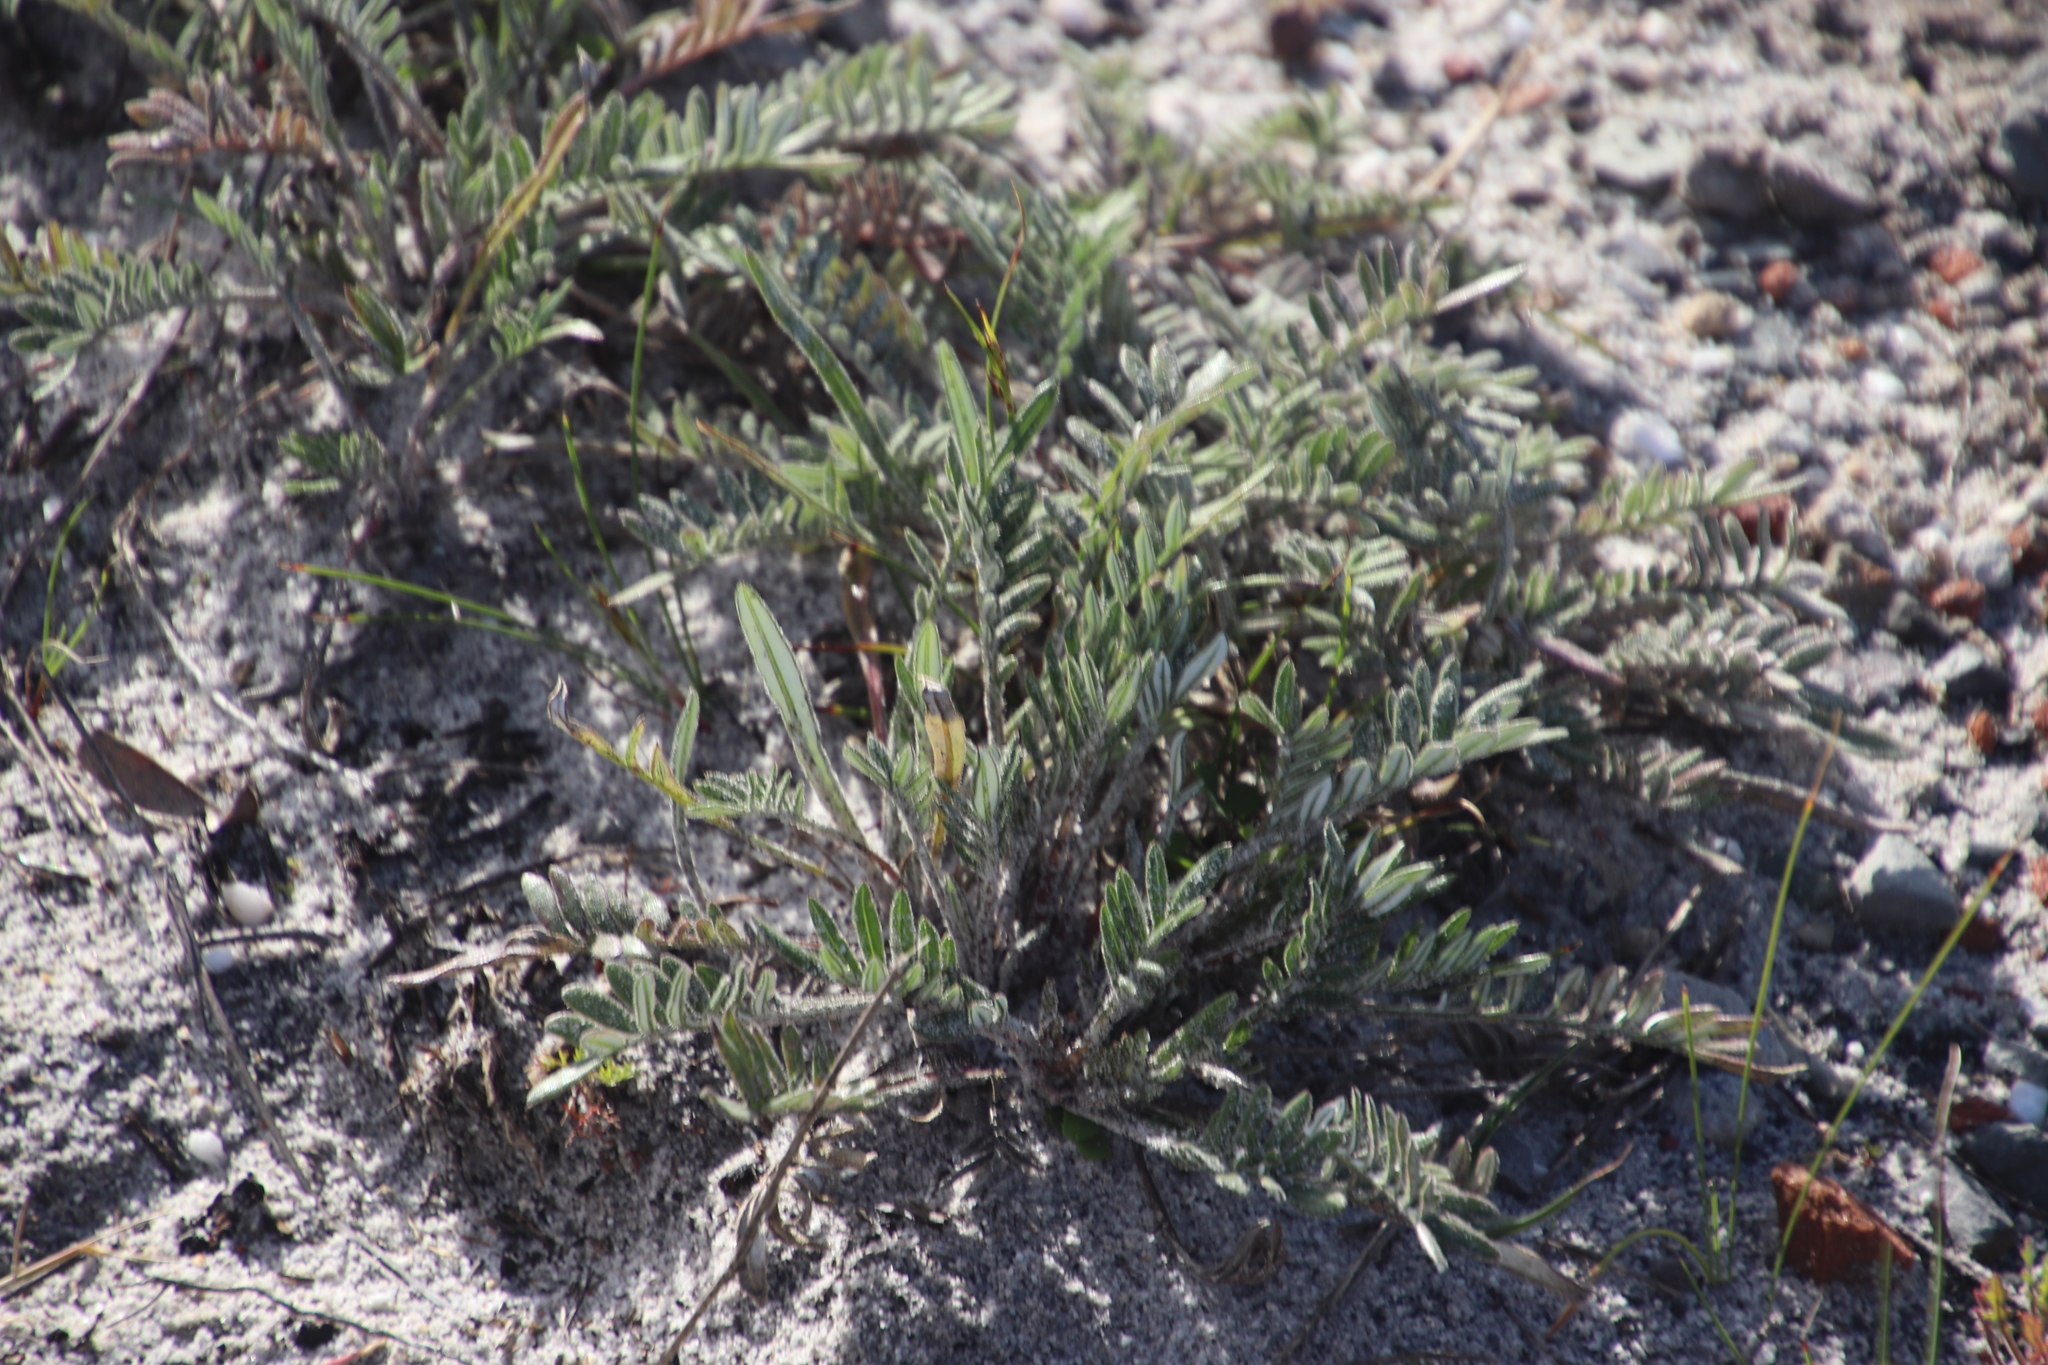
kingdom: Plantae
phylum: Tracheophyta
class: Magnoliopsida
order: Asterales
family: Asteraceae
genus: Gazania
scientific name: Gazania pectinata
